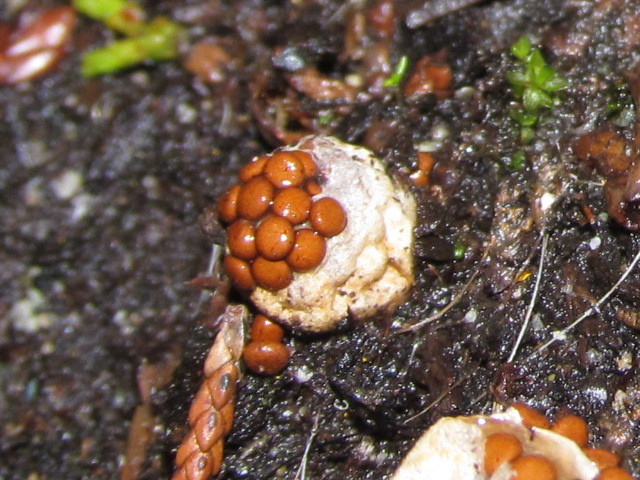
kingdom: Fungi
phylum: Basidiomycota
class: Agaricomycetes
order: Agaricales
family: Agaricaceae
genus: Nidularia
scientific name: Nidularia deformis
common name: Pea-shaped bird's nest
